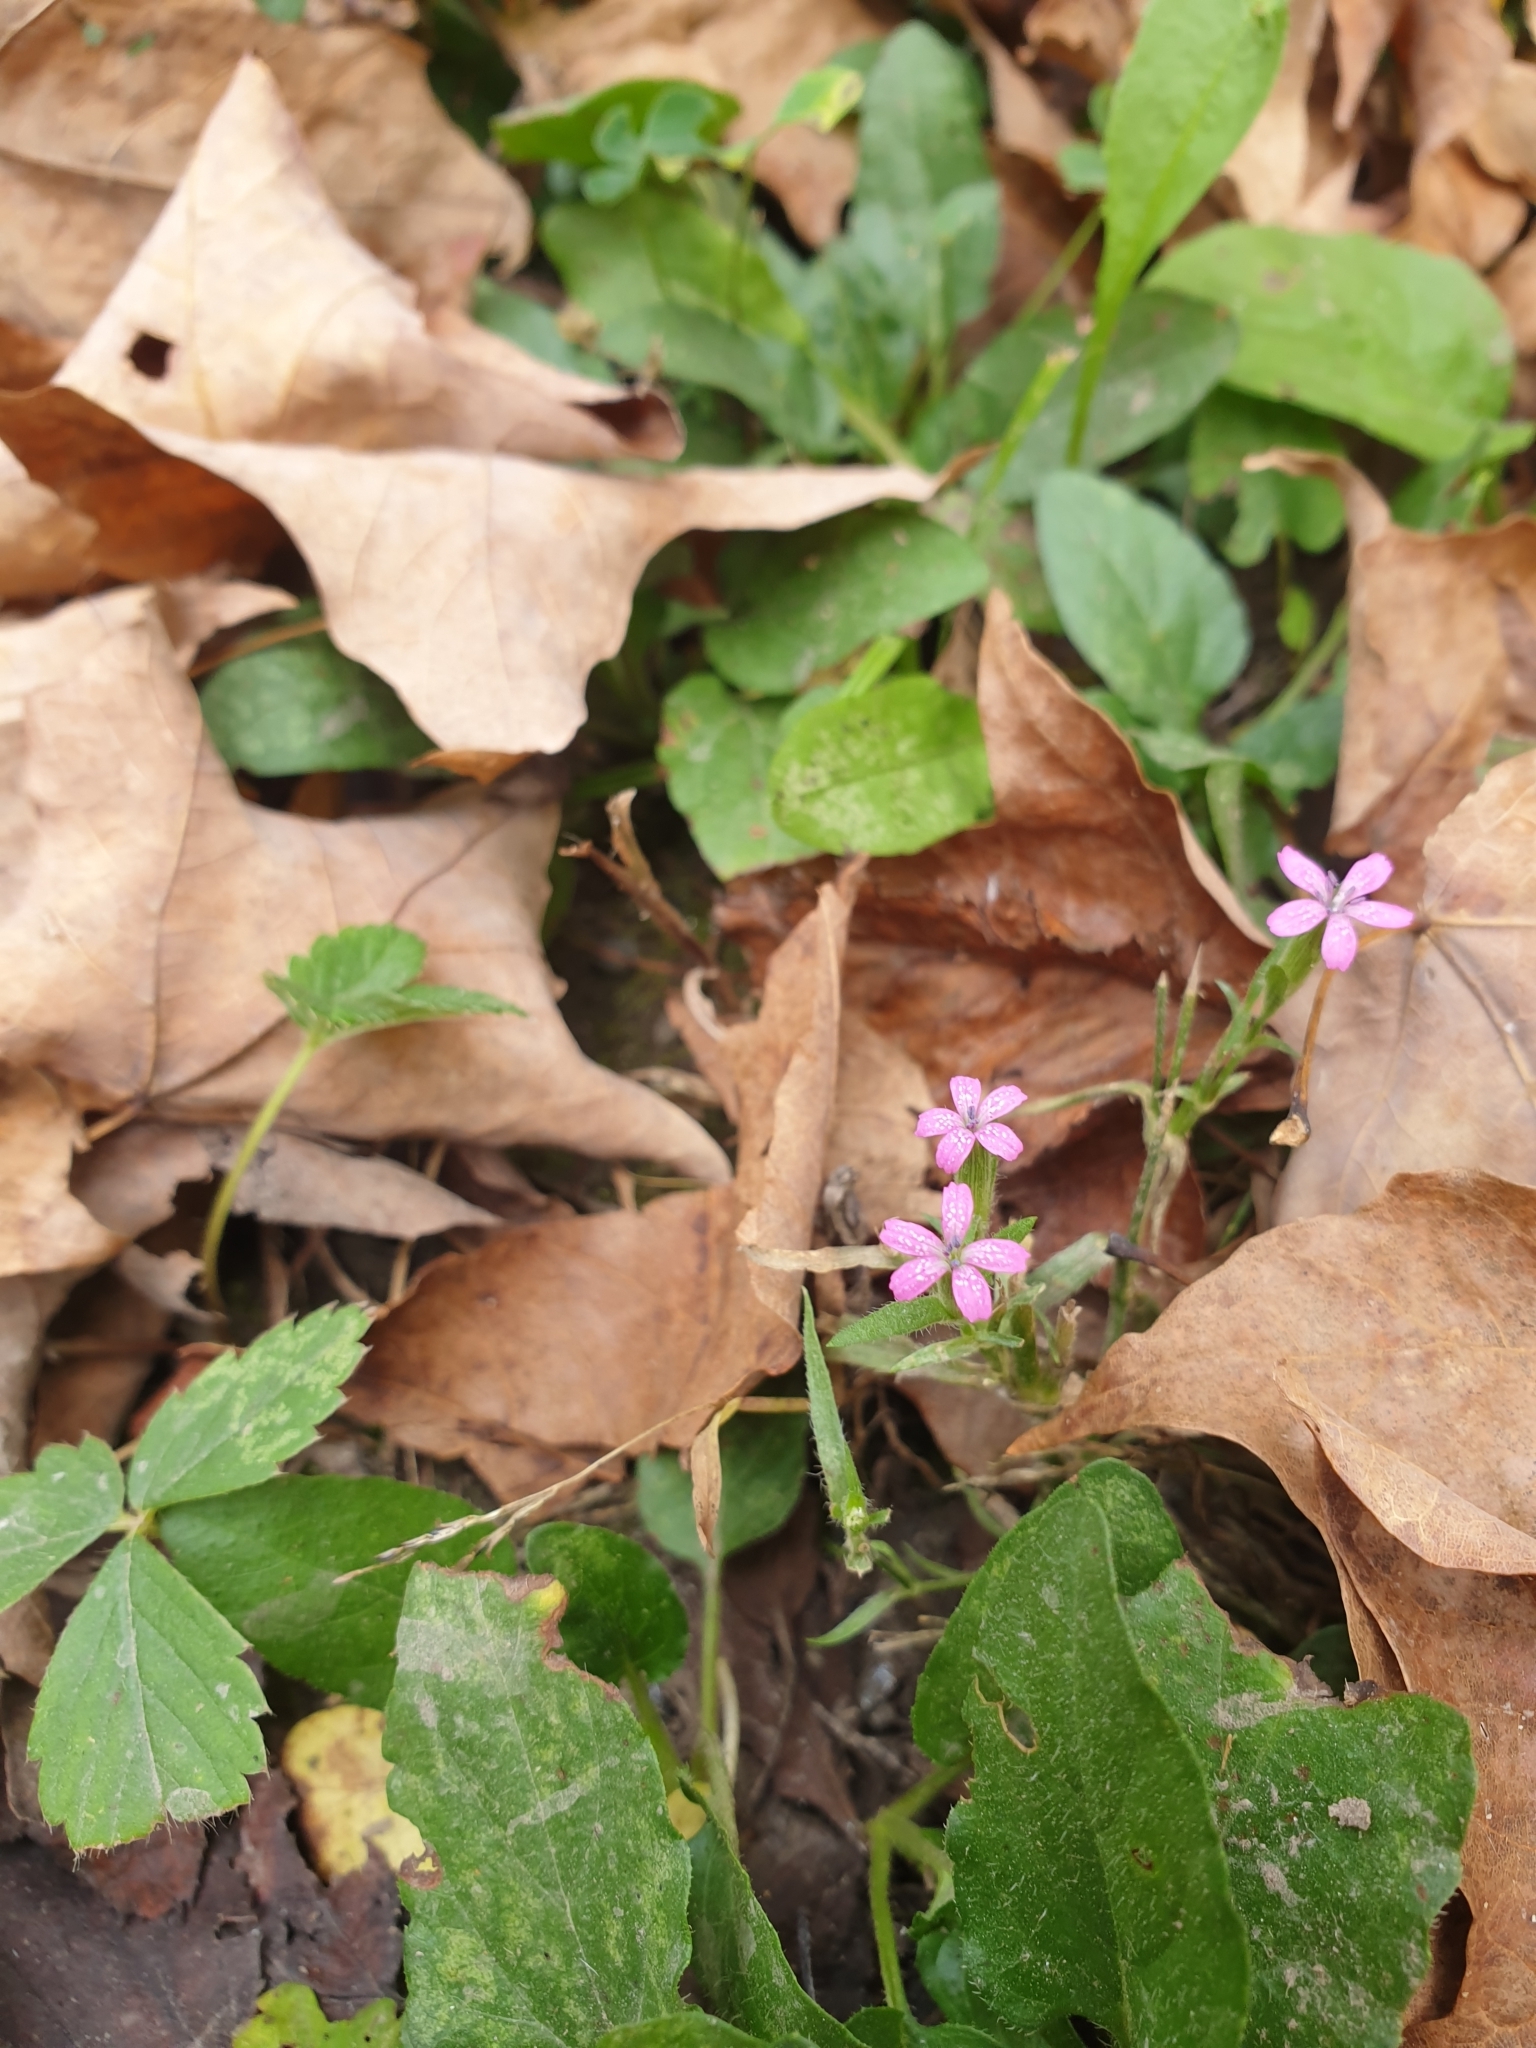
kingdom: Plantae
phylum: Tracheophyta
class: Magnoliopsida
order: Caryophyllales
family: Caryophyllaceae
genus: Dianthus
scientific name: Dianthus armeria
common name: Deptford pink
